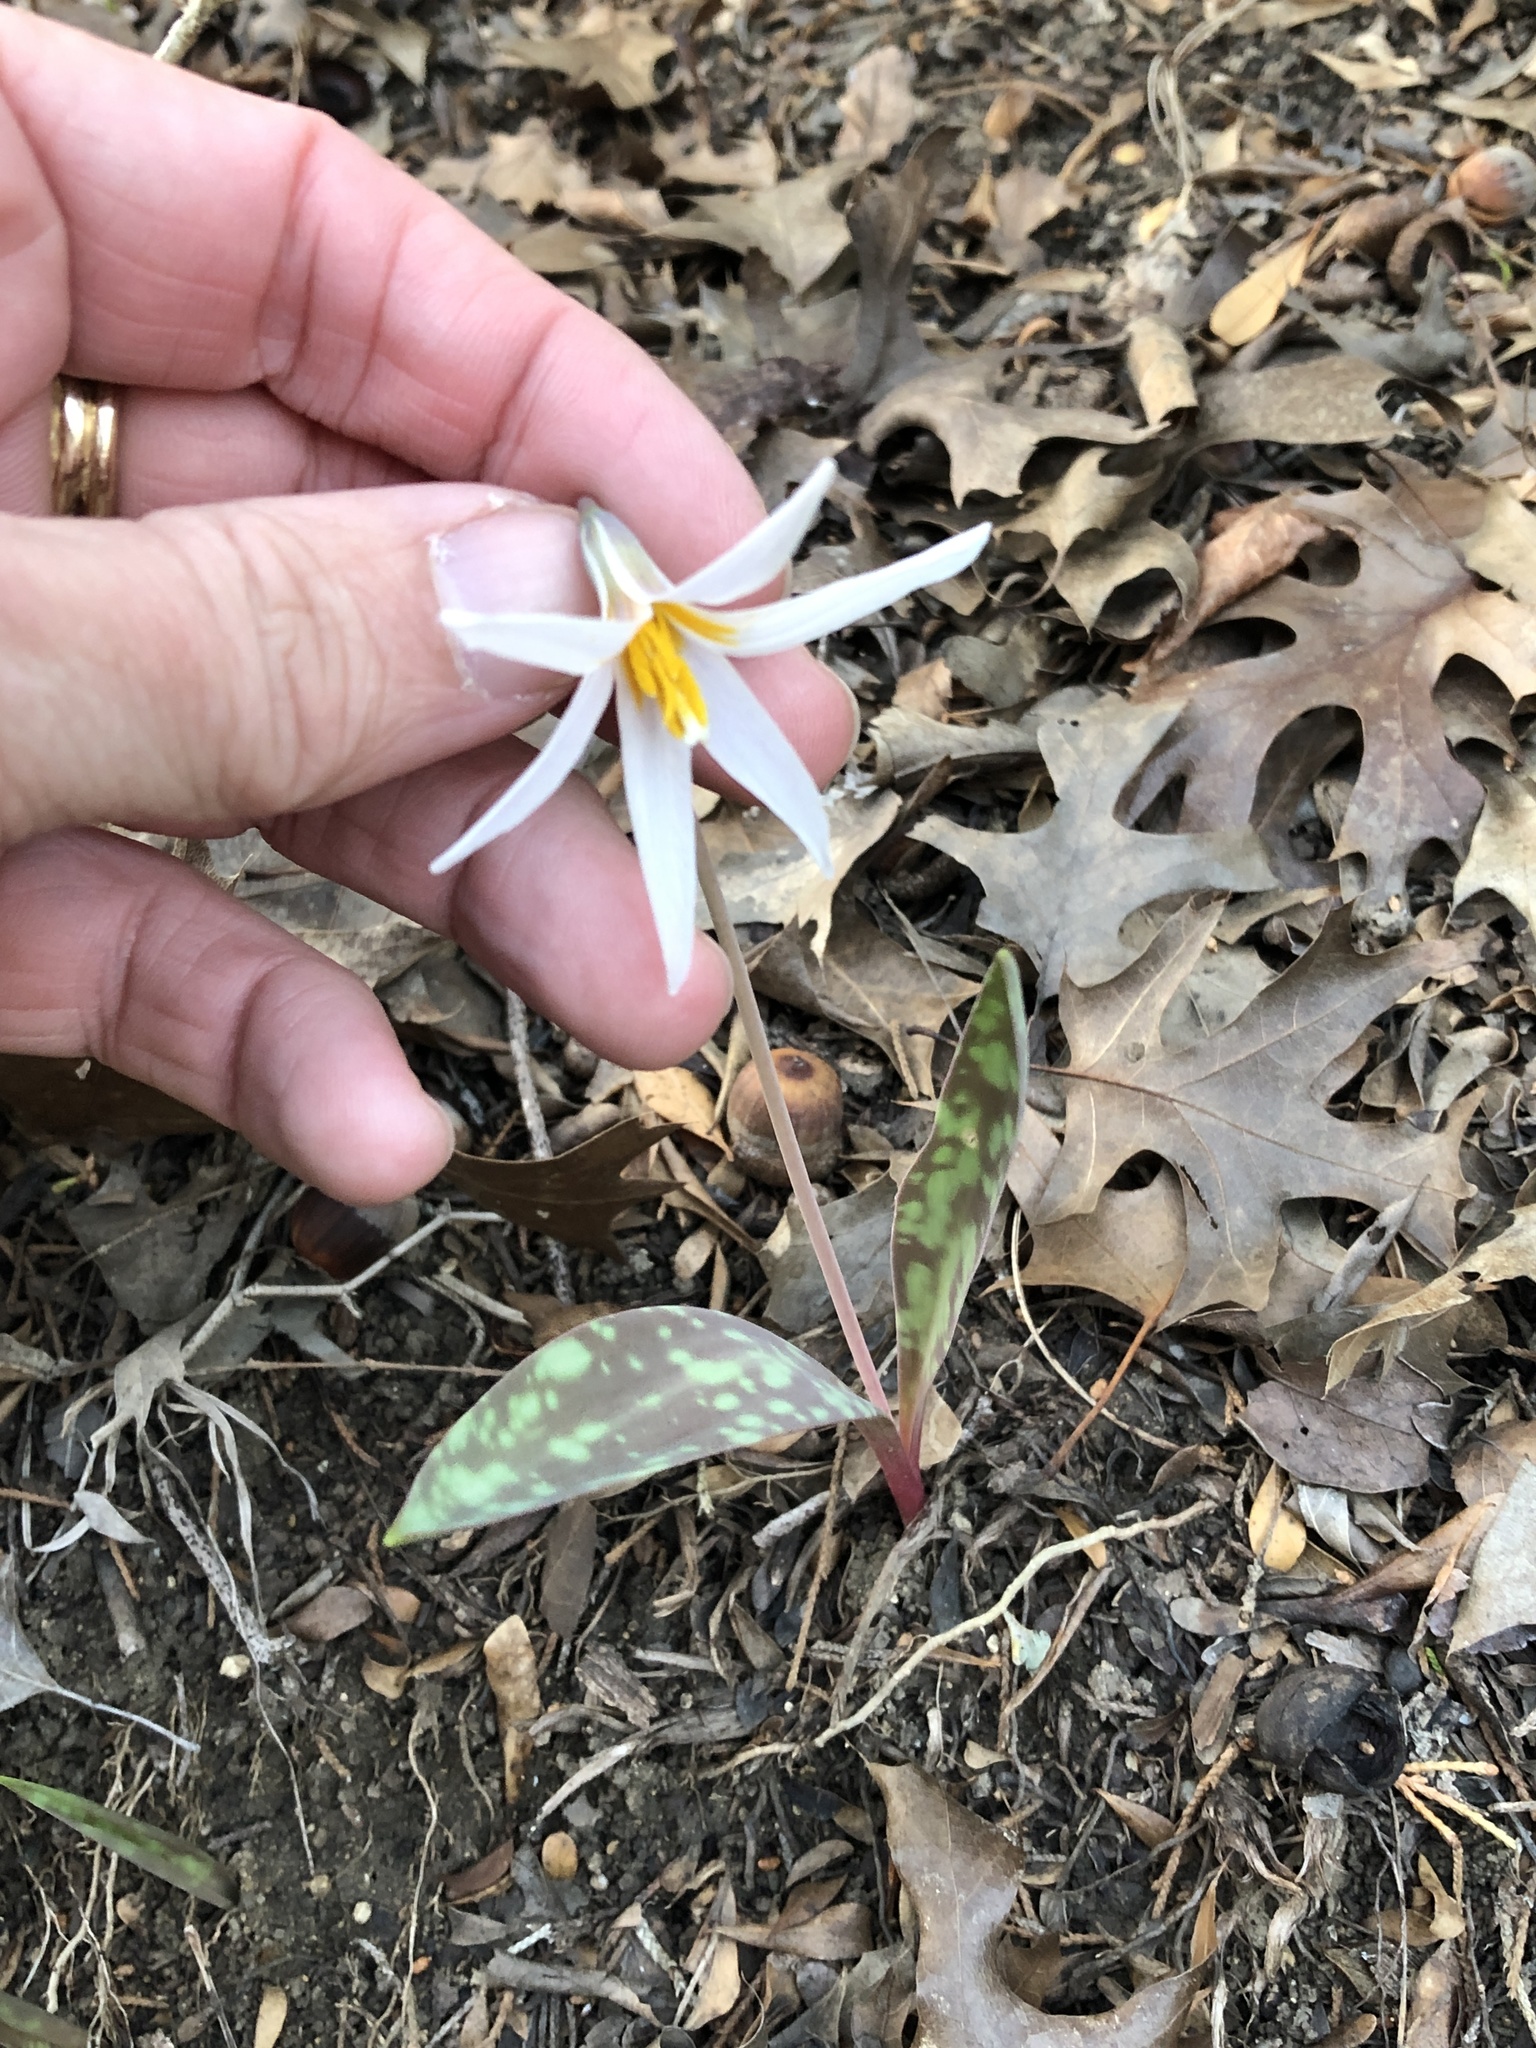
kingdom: Plantae
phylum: Tracheophyta
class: Liliopsida
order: Liliales
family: Liliaceae
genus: Erythronium
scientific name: Erythronium albidum
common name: White trout-lily
